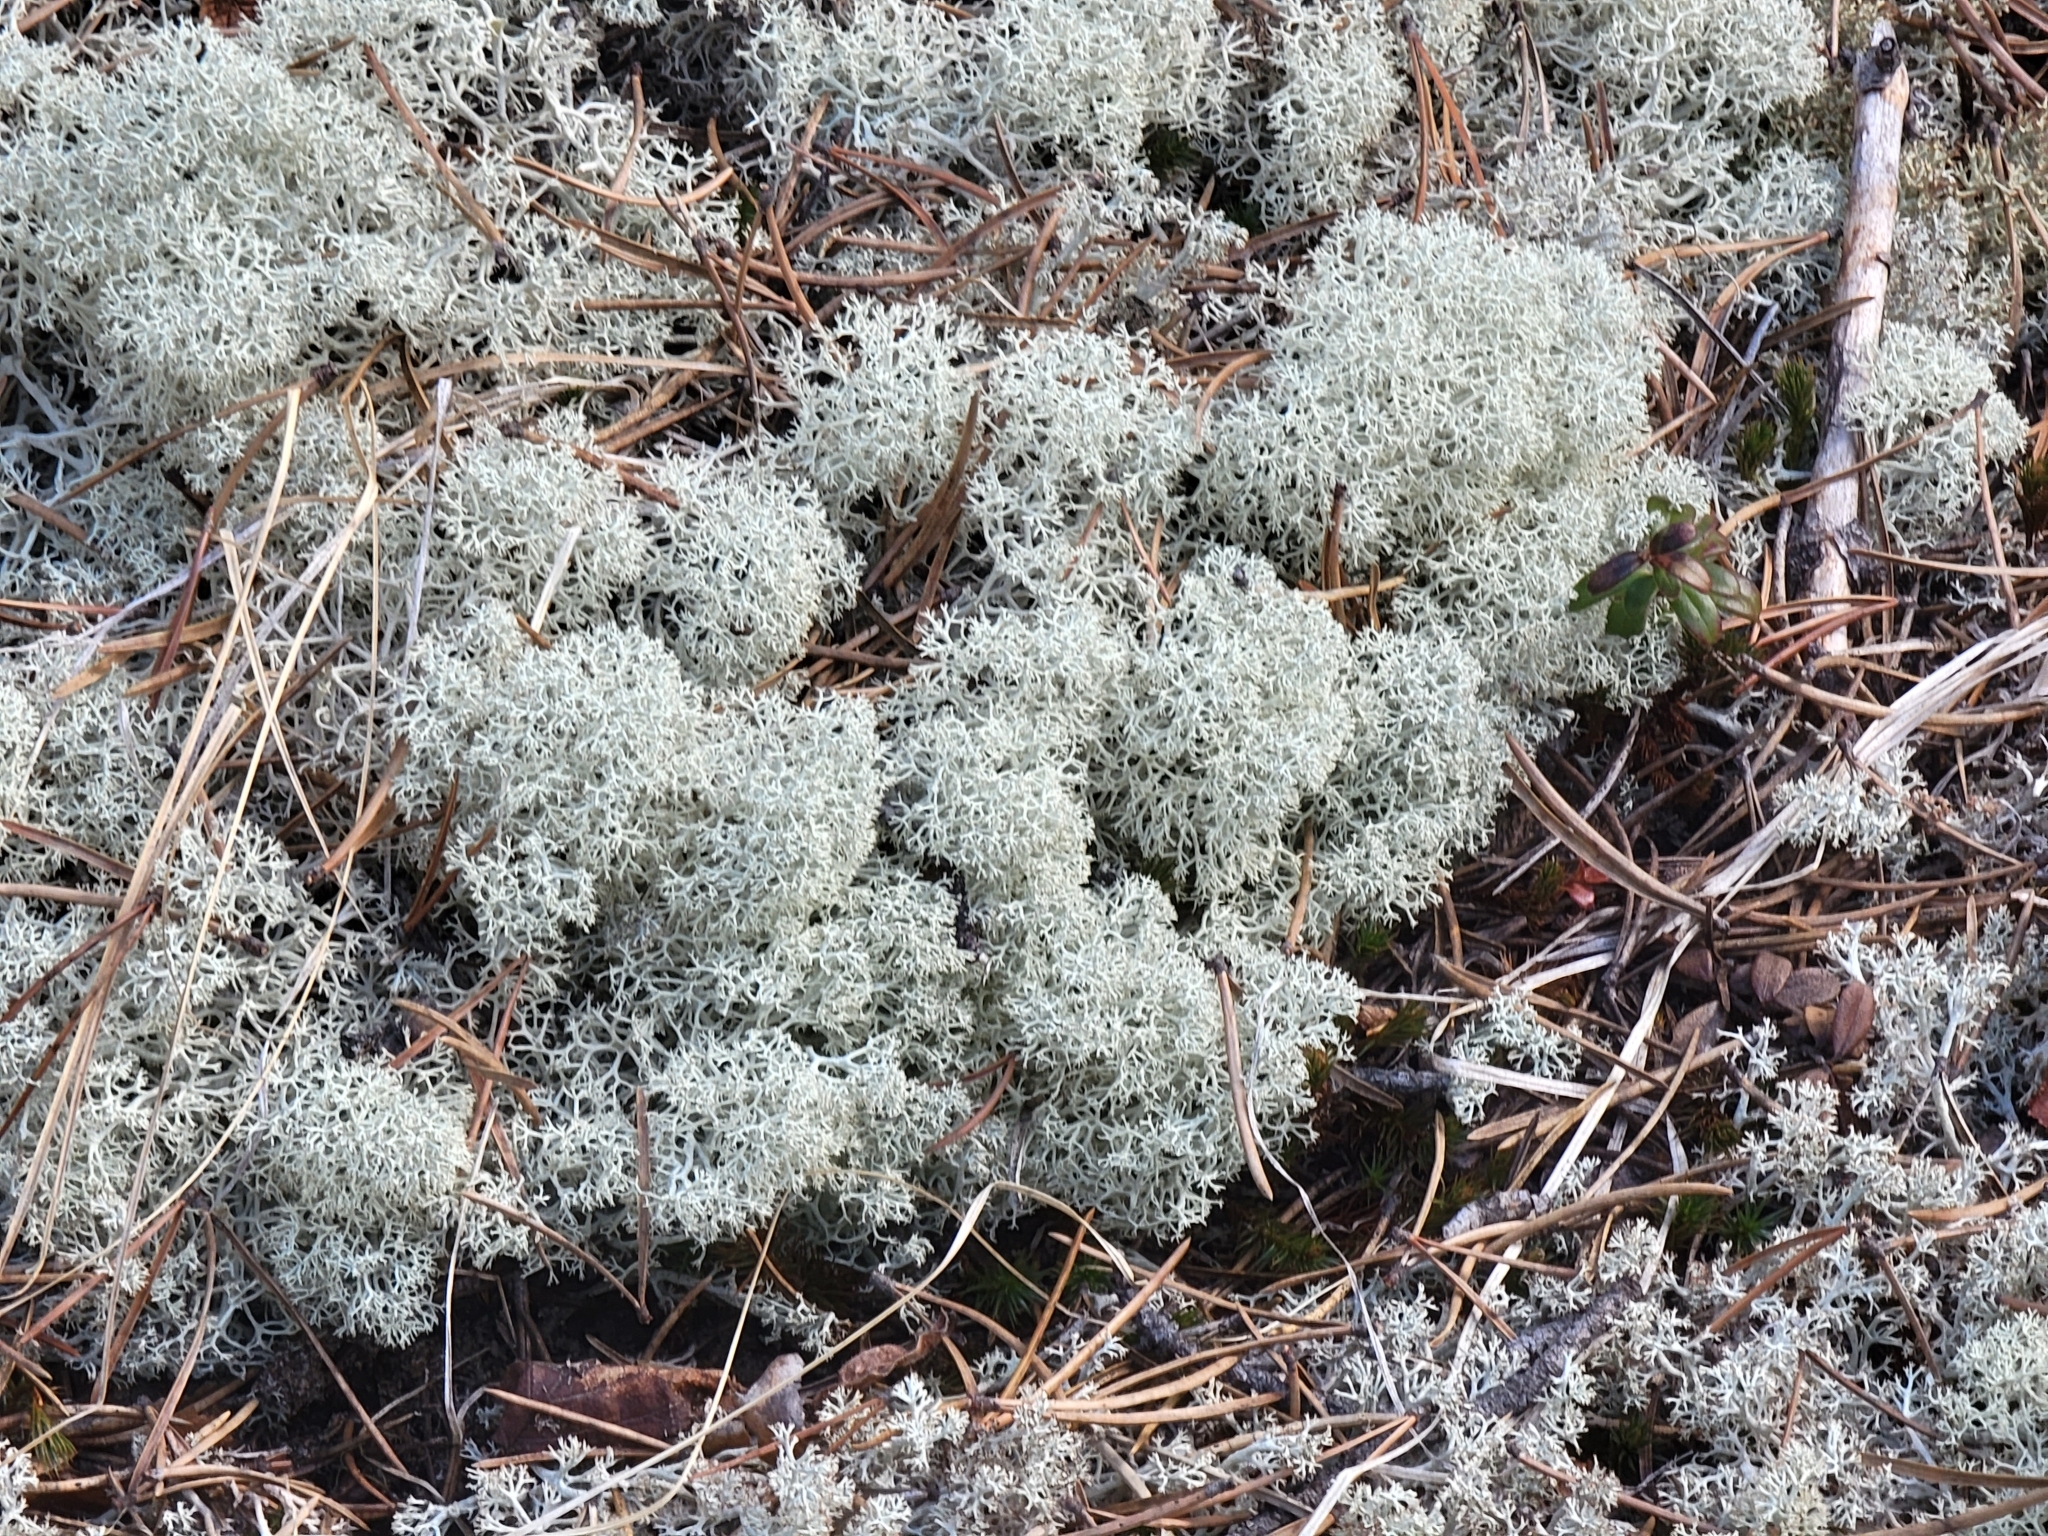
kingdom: Fungi
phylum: Ascomycota
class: Lecanoromycetes
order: Lecanorales
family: Cladoniaceae
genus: Cladonia
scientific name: Cladonia stellaris
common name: Star-tipped reindeer lichen
